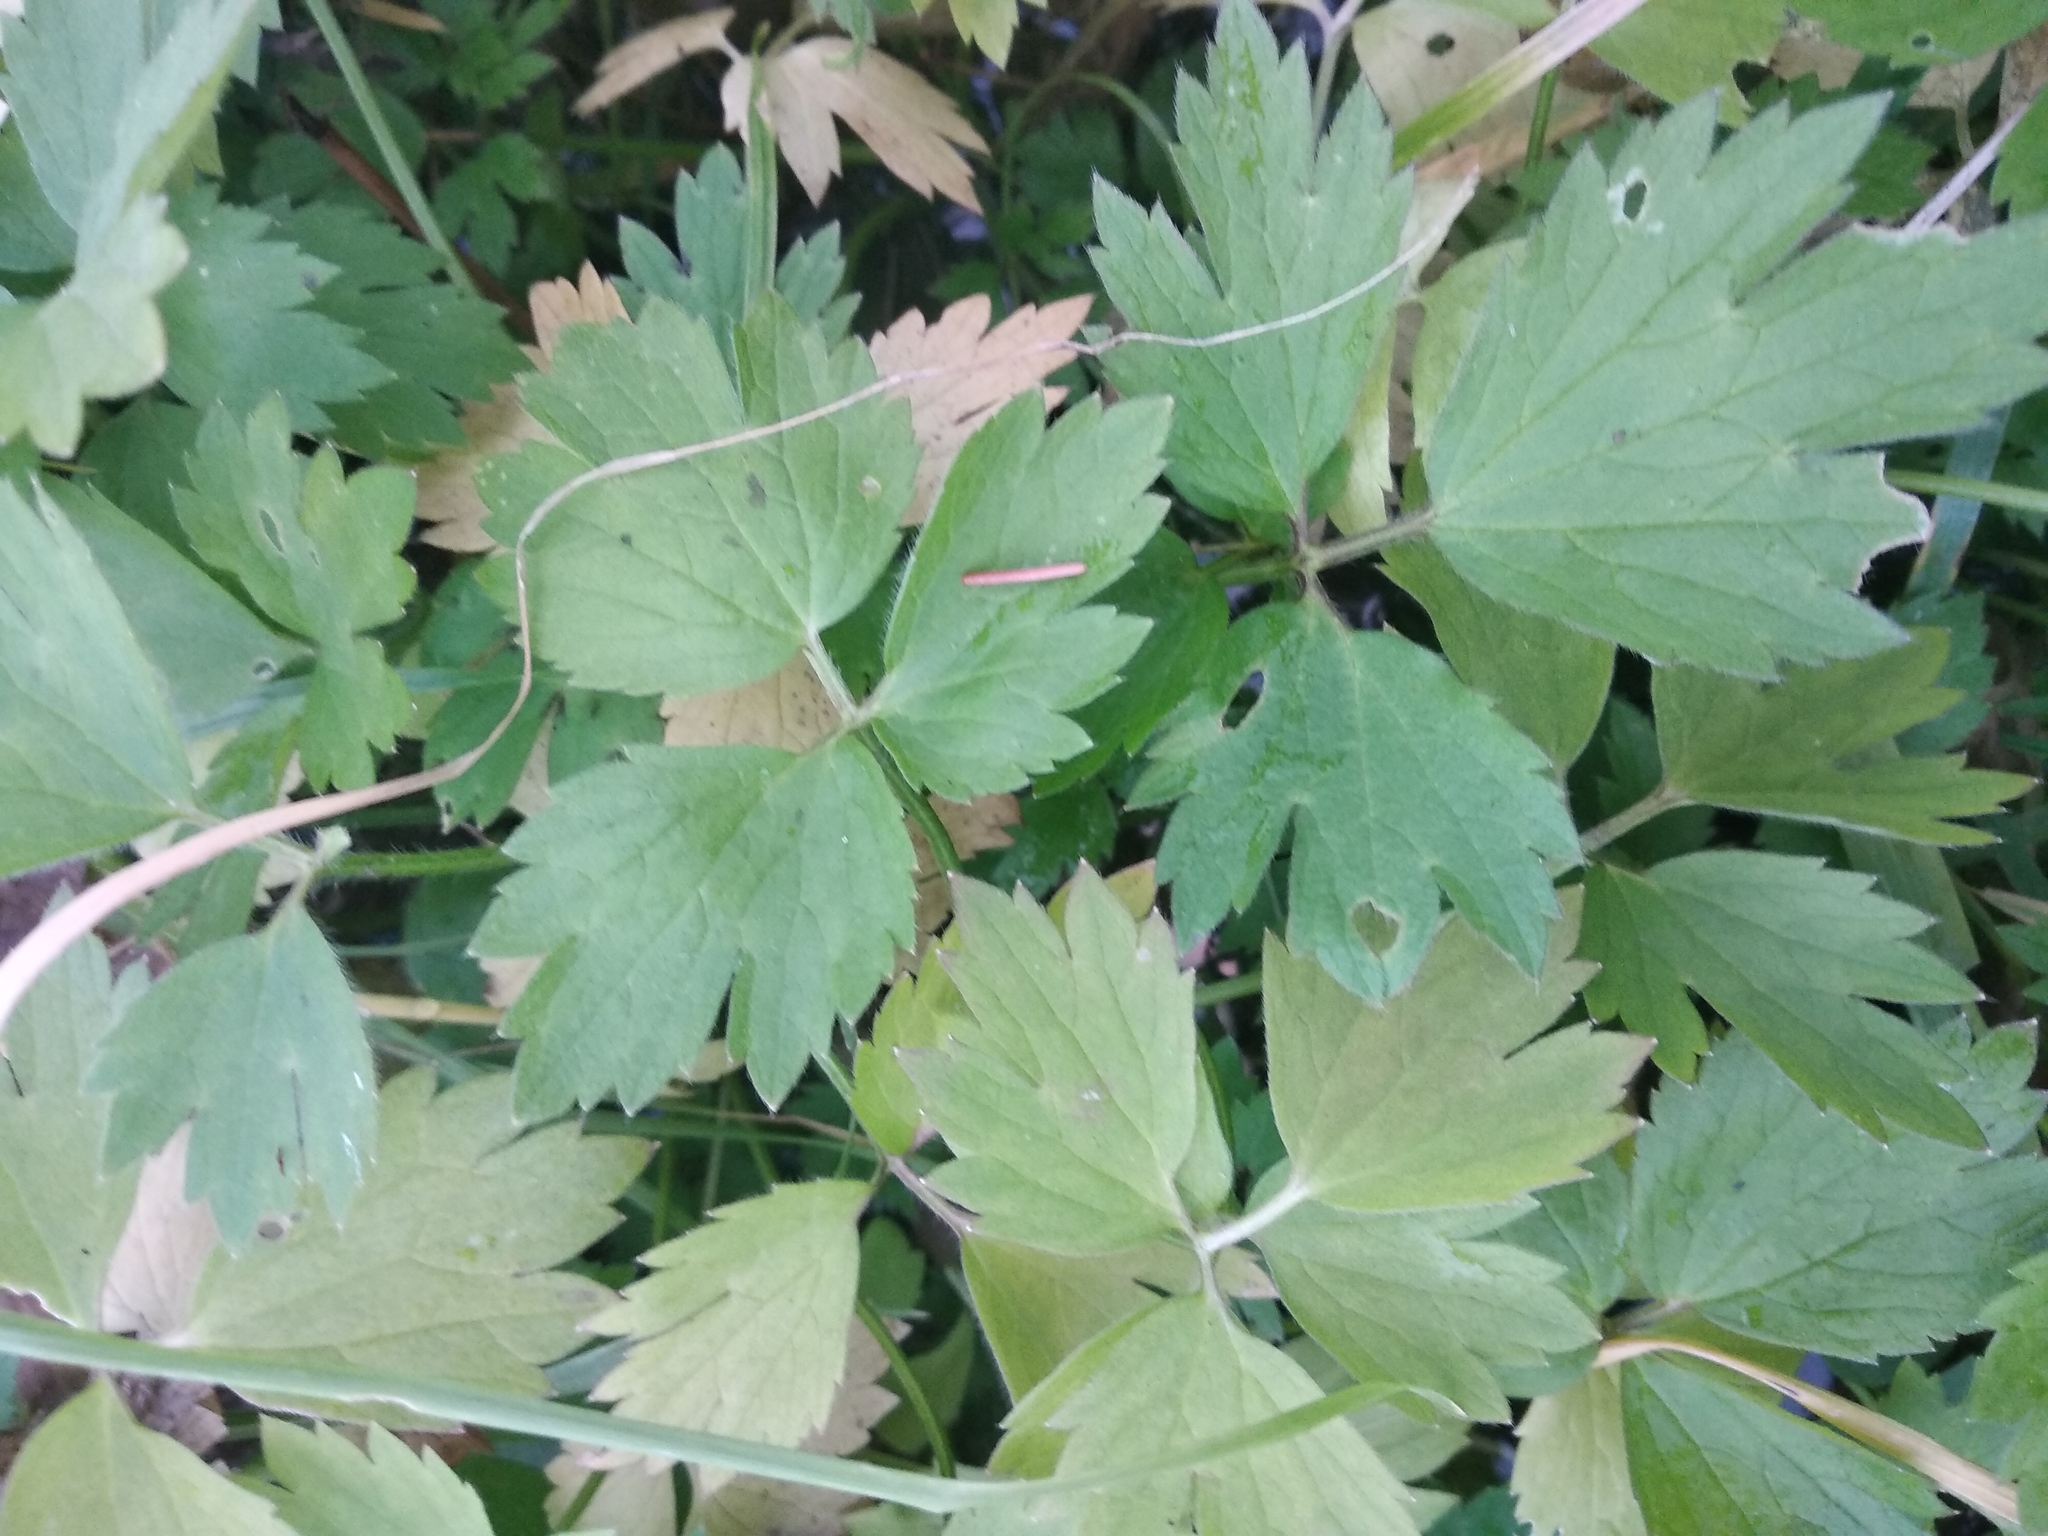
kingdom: Plantae
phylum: Tracheophyta
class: Magnoliopsida
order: Ranunculales
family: Ranunculaceae
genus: Ranunculus
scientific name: Ranunculus repens
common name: Creeping buttercup
